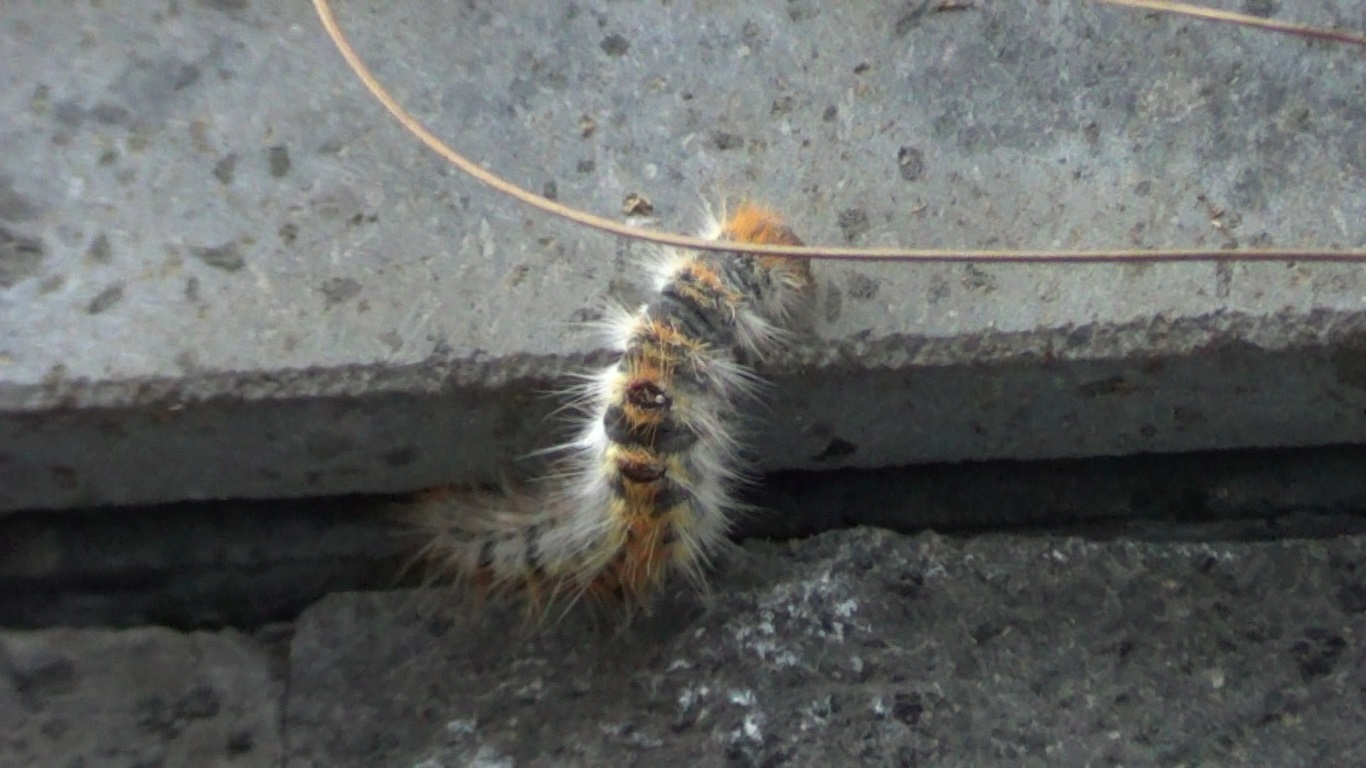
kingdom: Animalia
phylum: Arthropoda
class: Insecta
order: Lepidoptera
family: Notodontidae
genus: Thaumetopoea
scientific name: Thaumetopoea pityocampa
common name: Pine processionary
